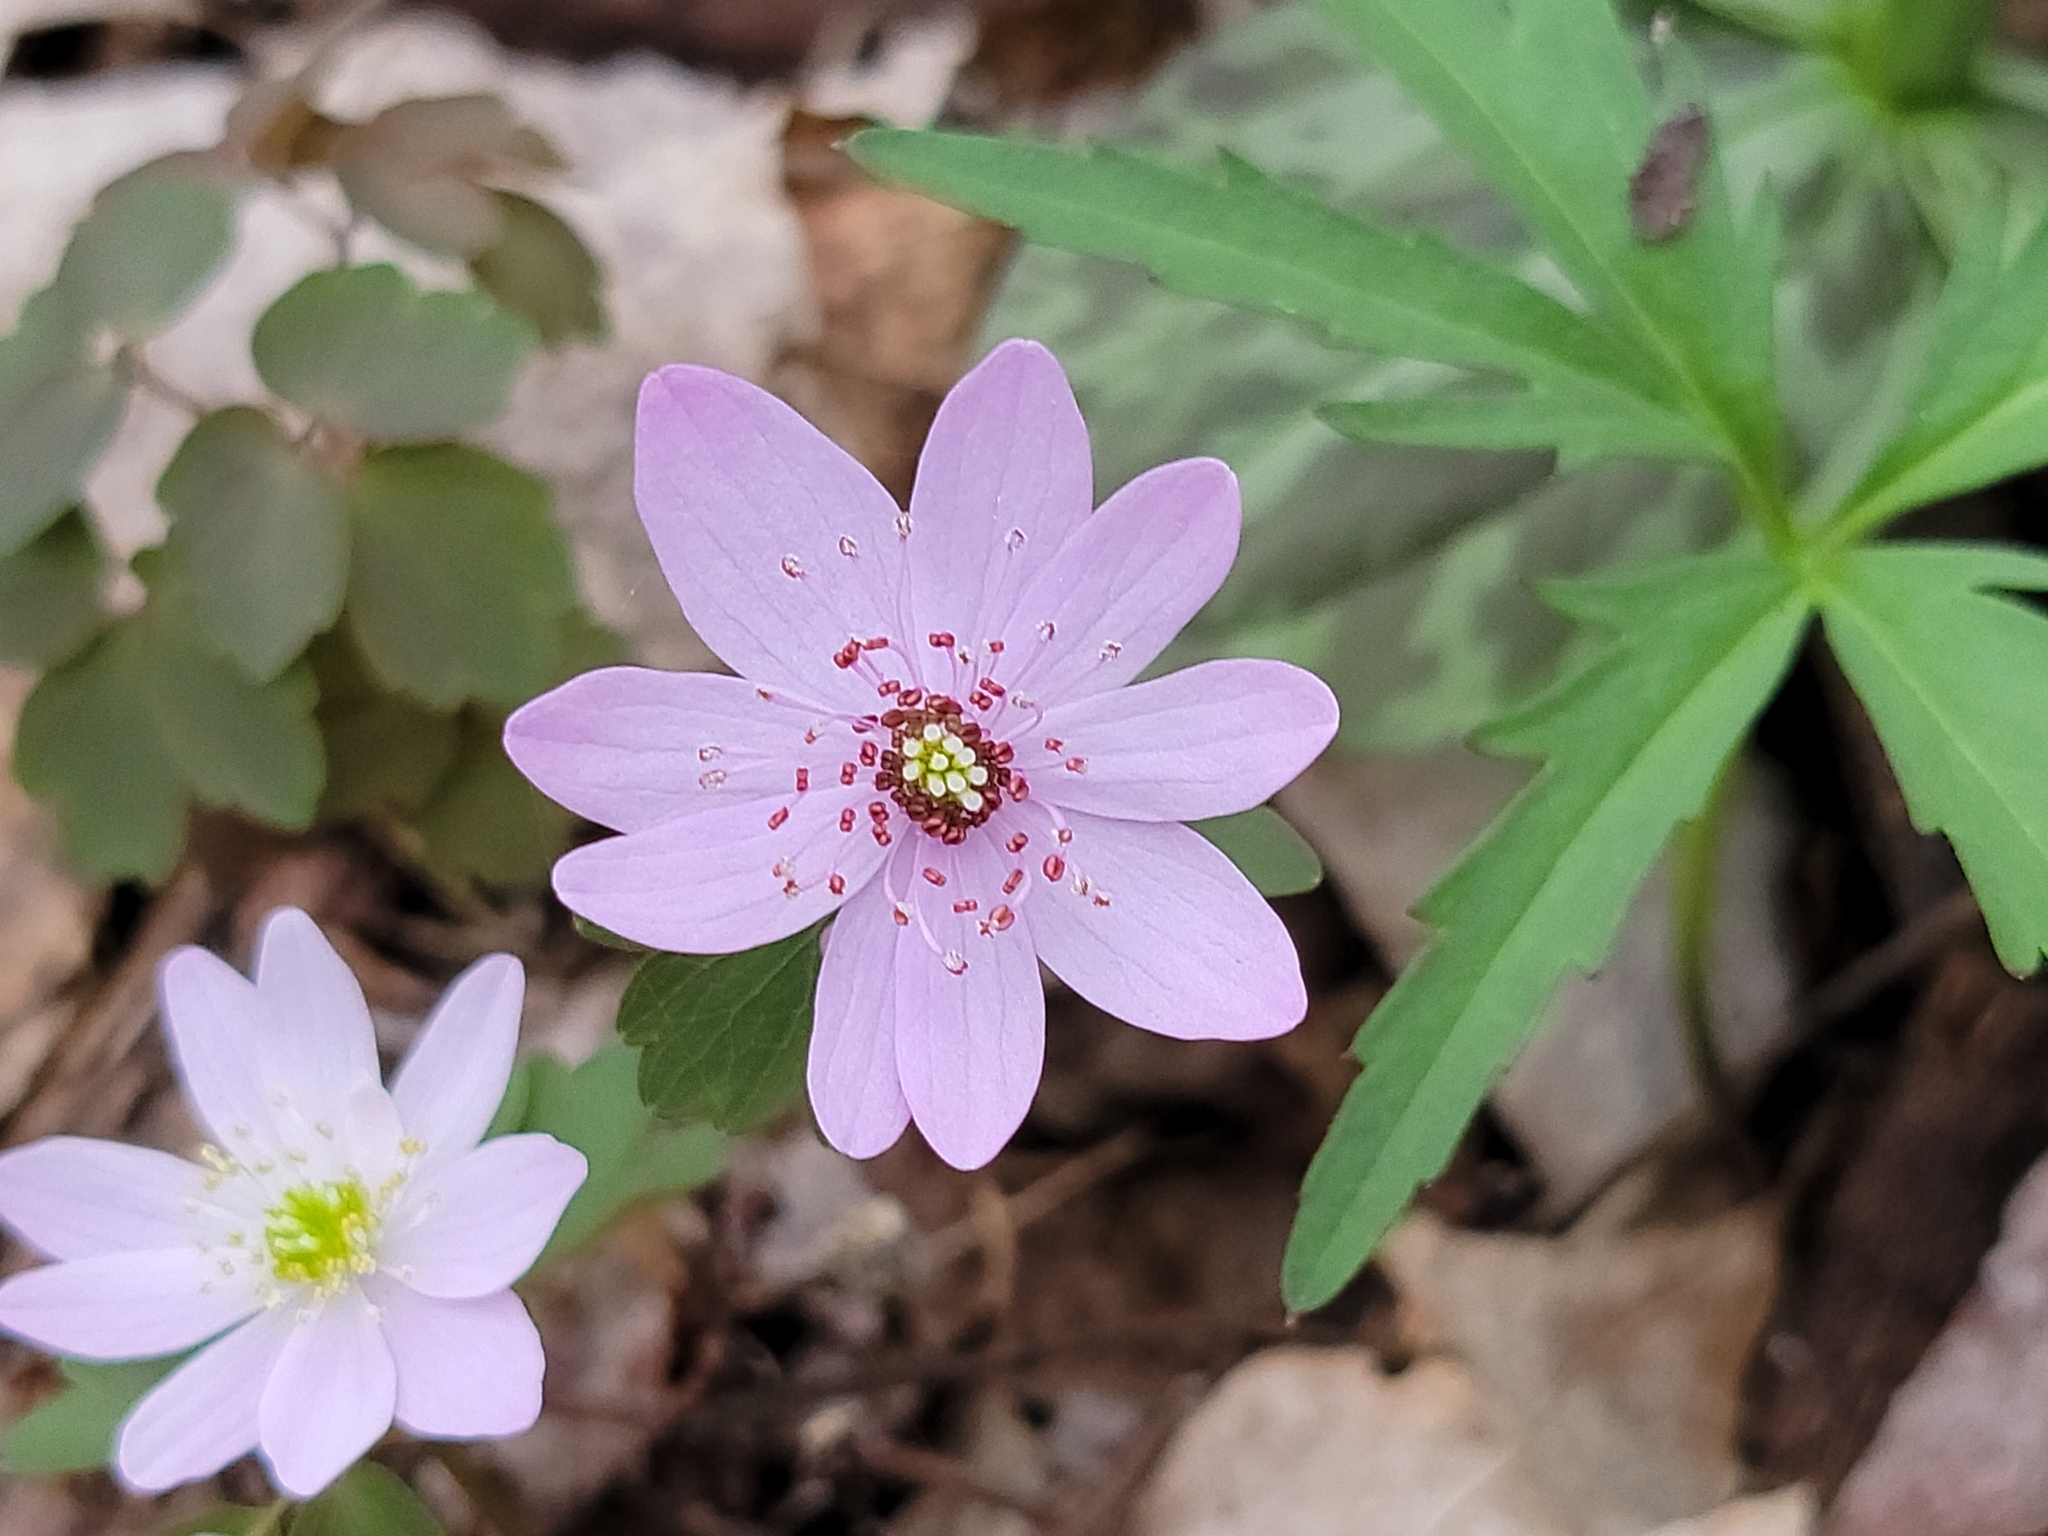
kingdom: Plantae
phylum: Tracheophyta
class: Magnoliopsida
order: Ranunculales
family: Ranunculaceae
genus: Thalictrum
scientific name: Thalictrum thalictroides
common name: Rue-anemone
